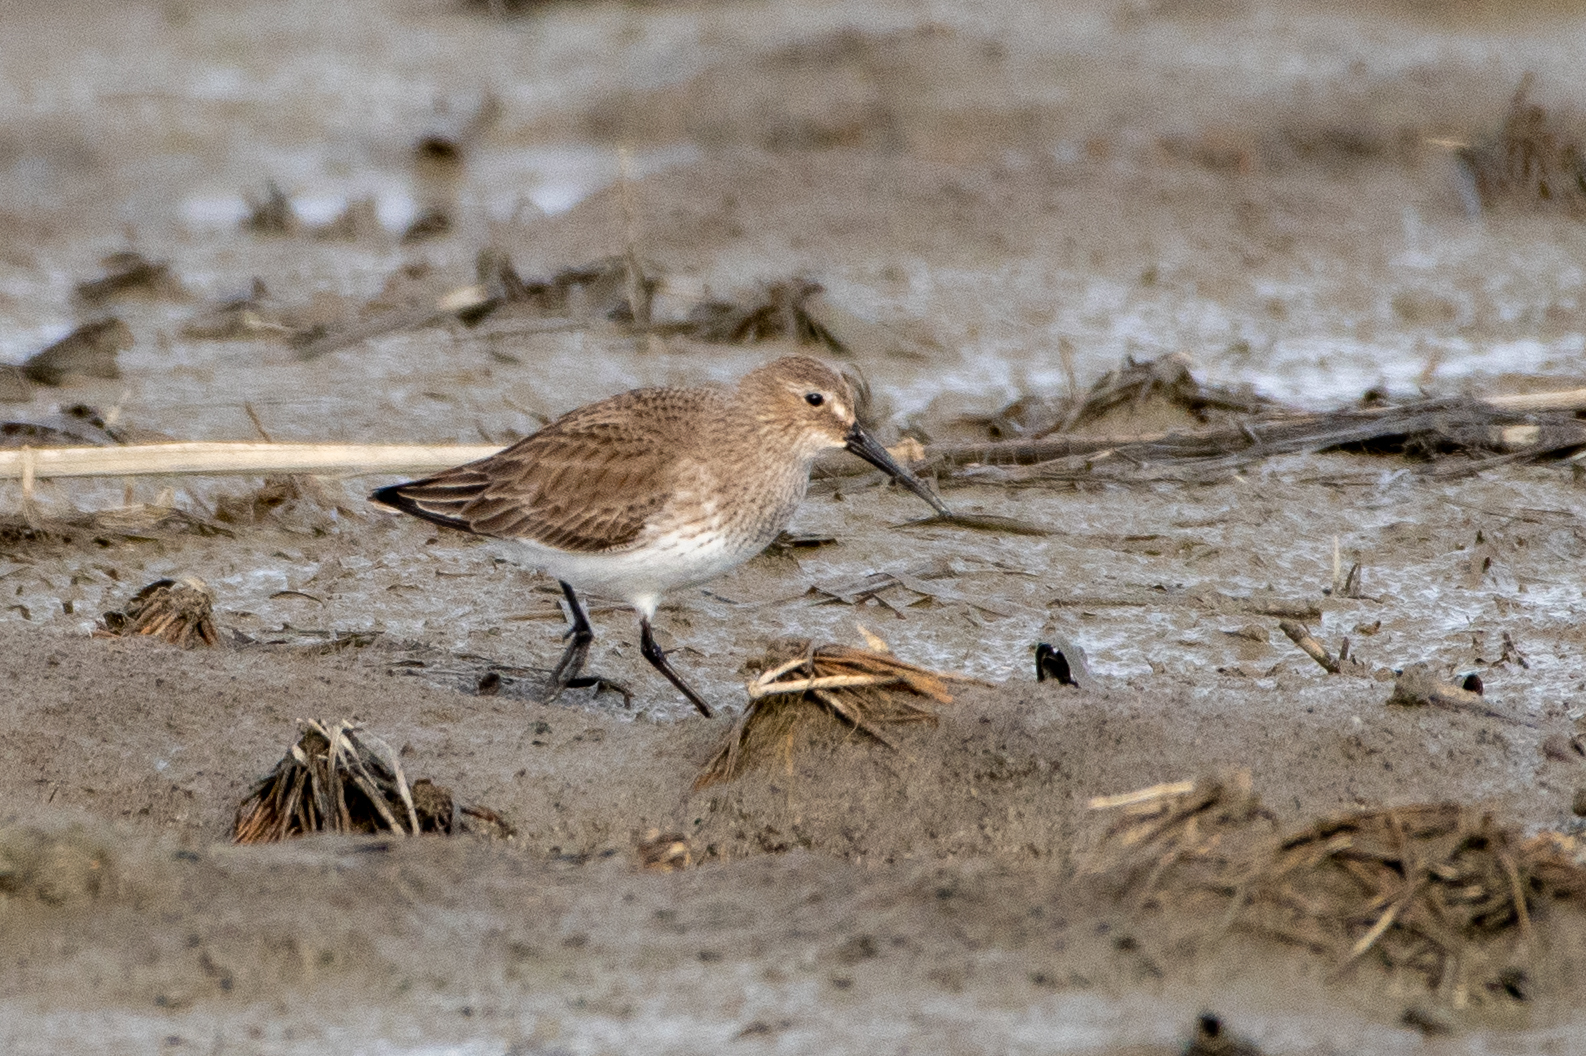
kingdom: Animalia
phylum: Chordata
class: Aves
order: Charadriiformes
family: Scolopacidae
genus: Calidris
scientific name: Calidris alpina
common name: Dunlin
